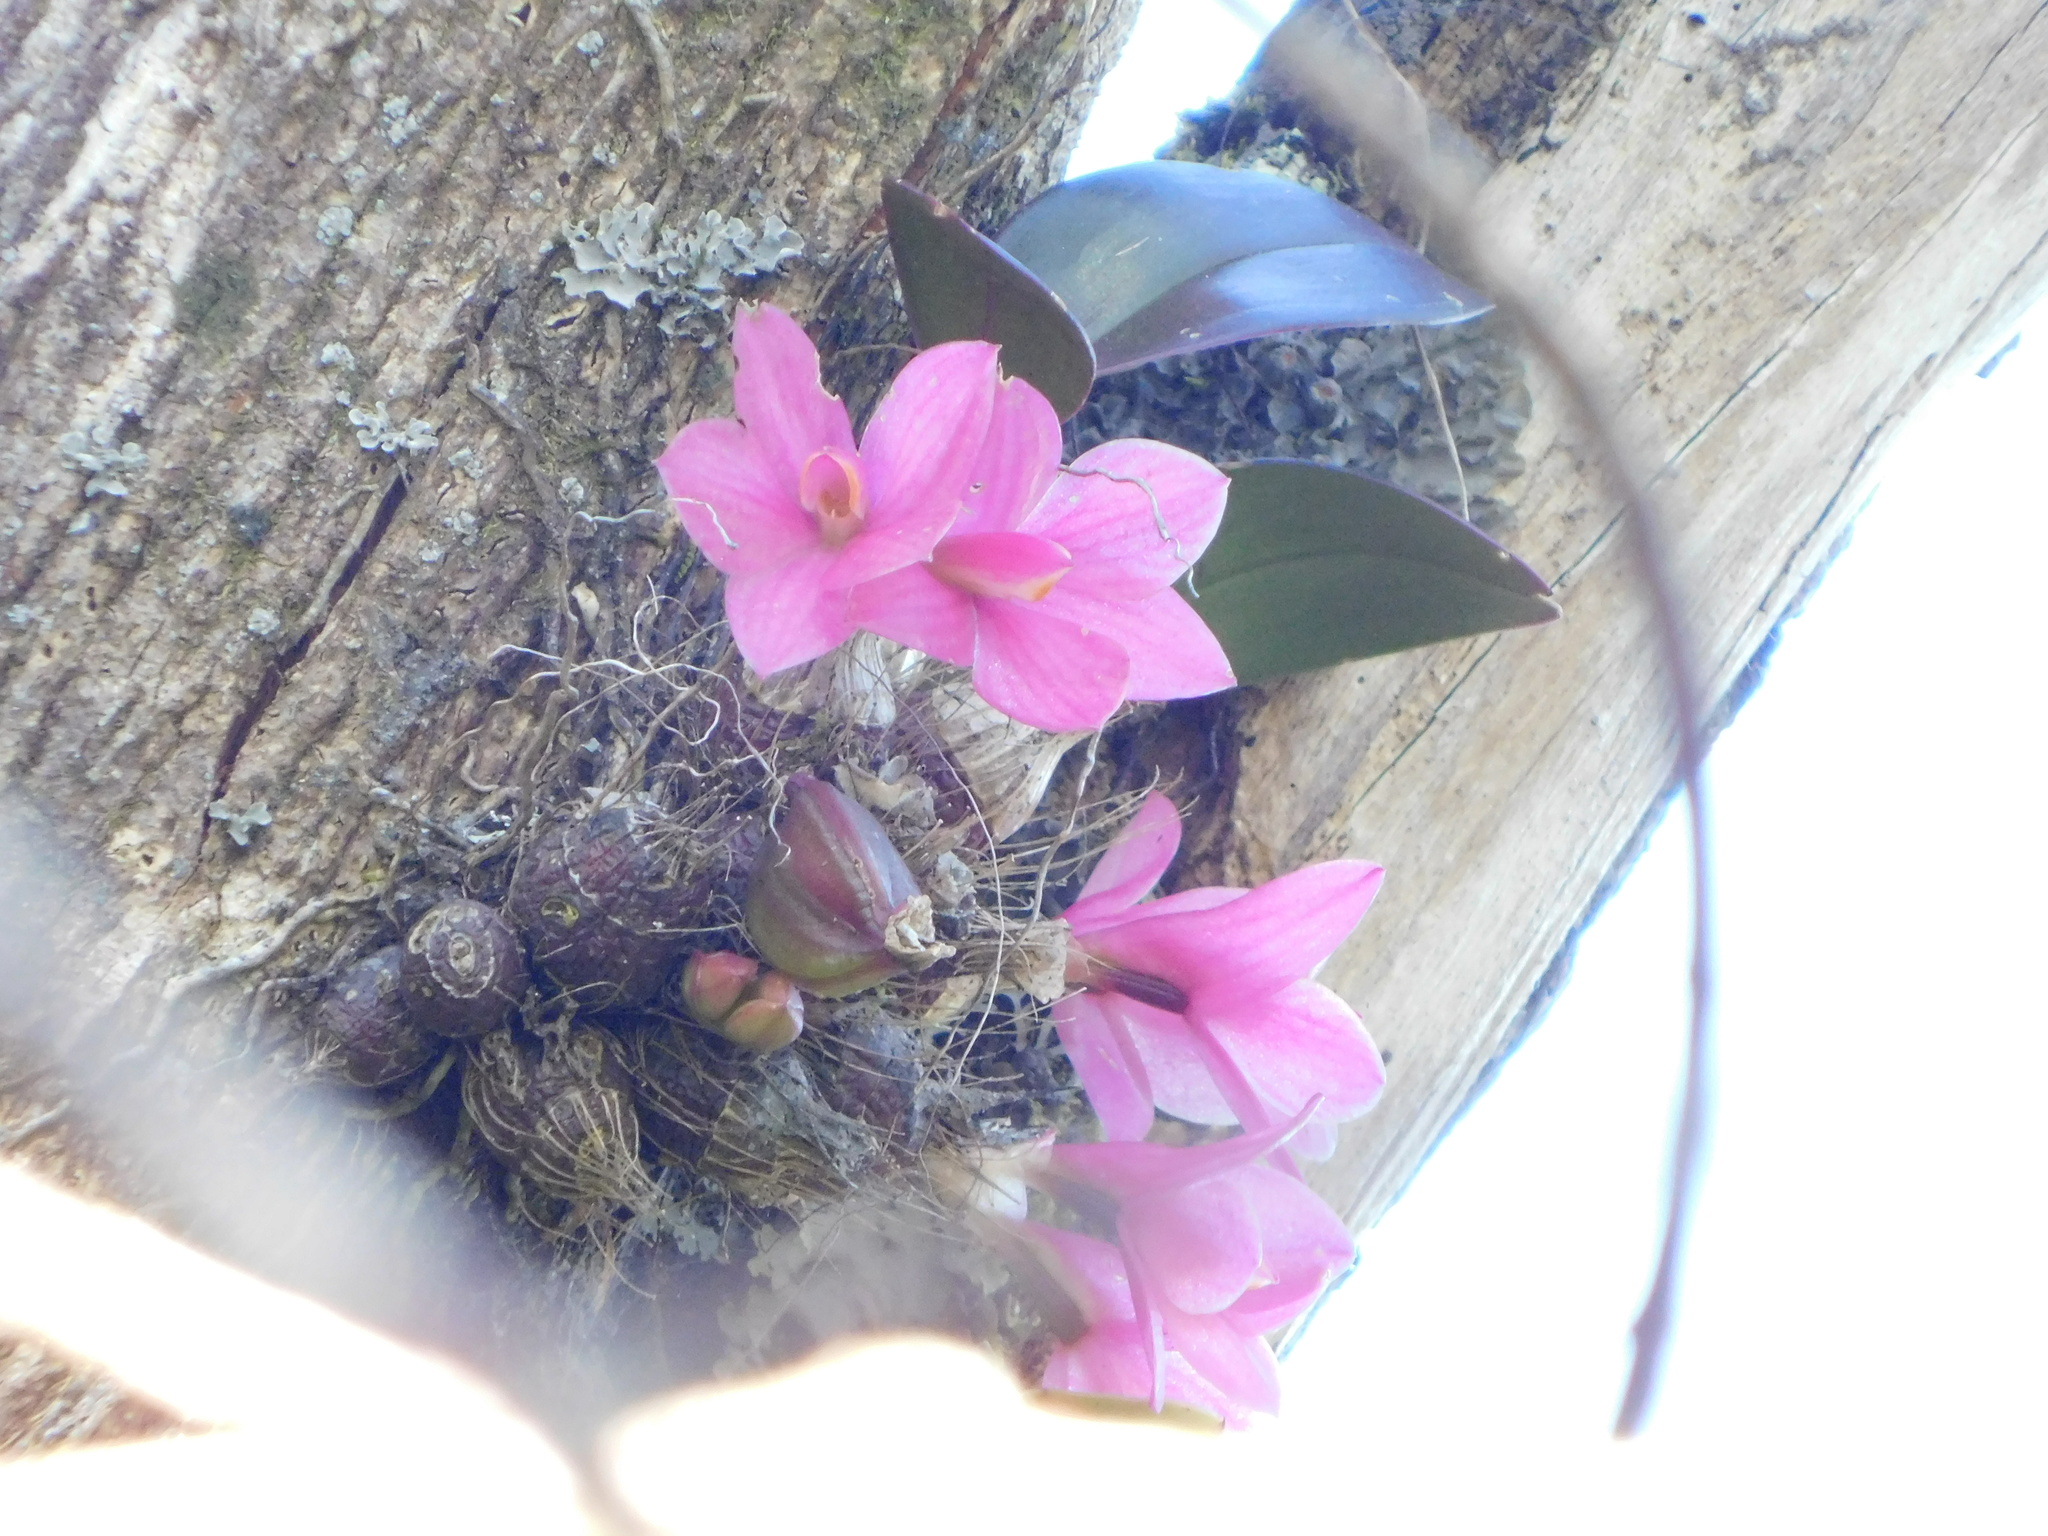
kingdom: Plantae
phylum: Tracheophyta
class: Liliopsida
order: Asparagales
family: Orchidaceae
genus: Dendrobium
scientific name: Dendrobium laevifolium
